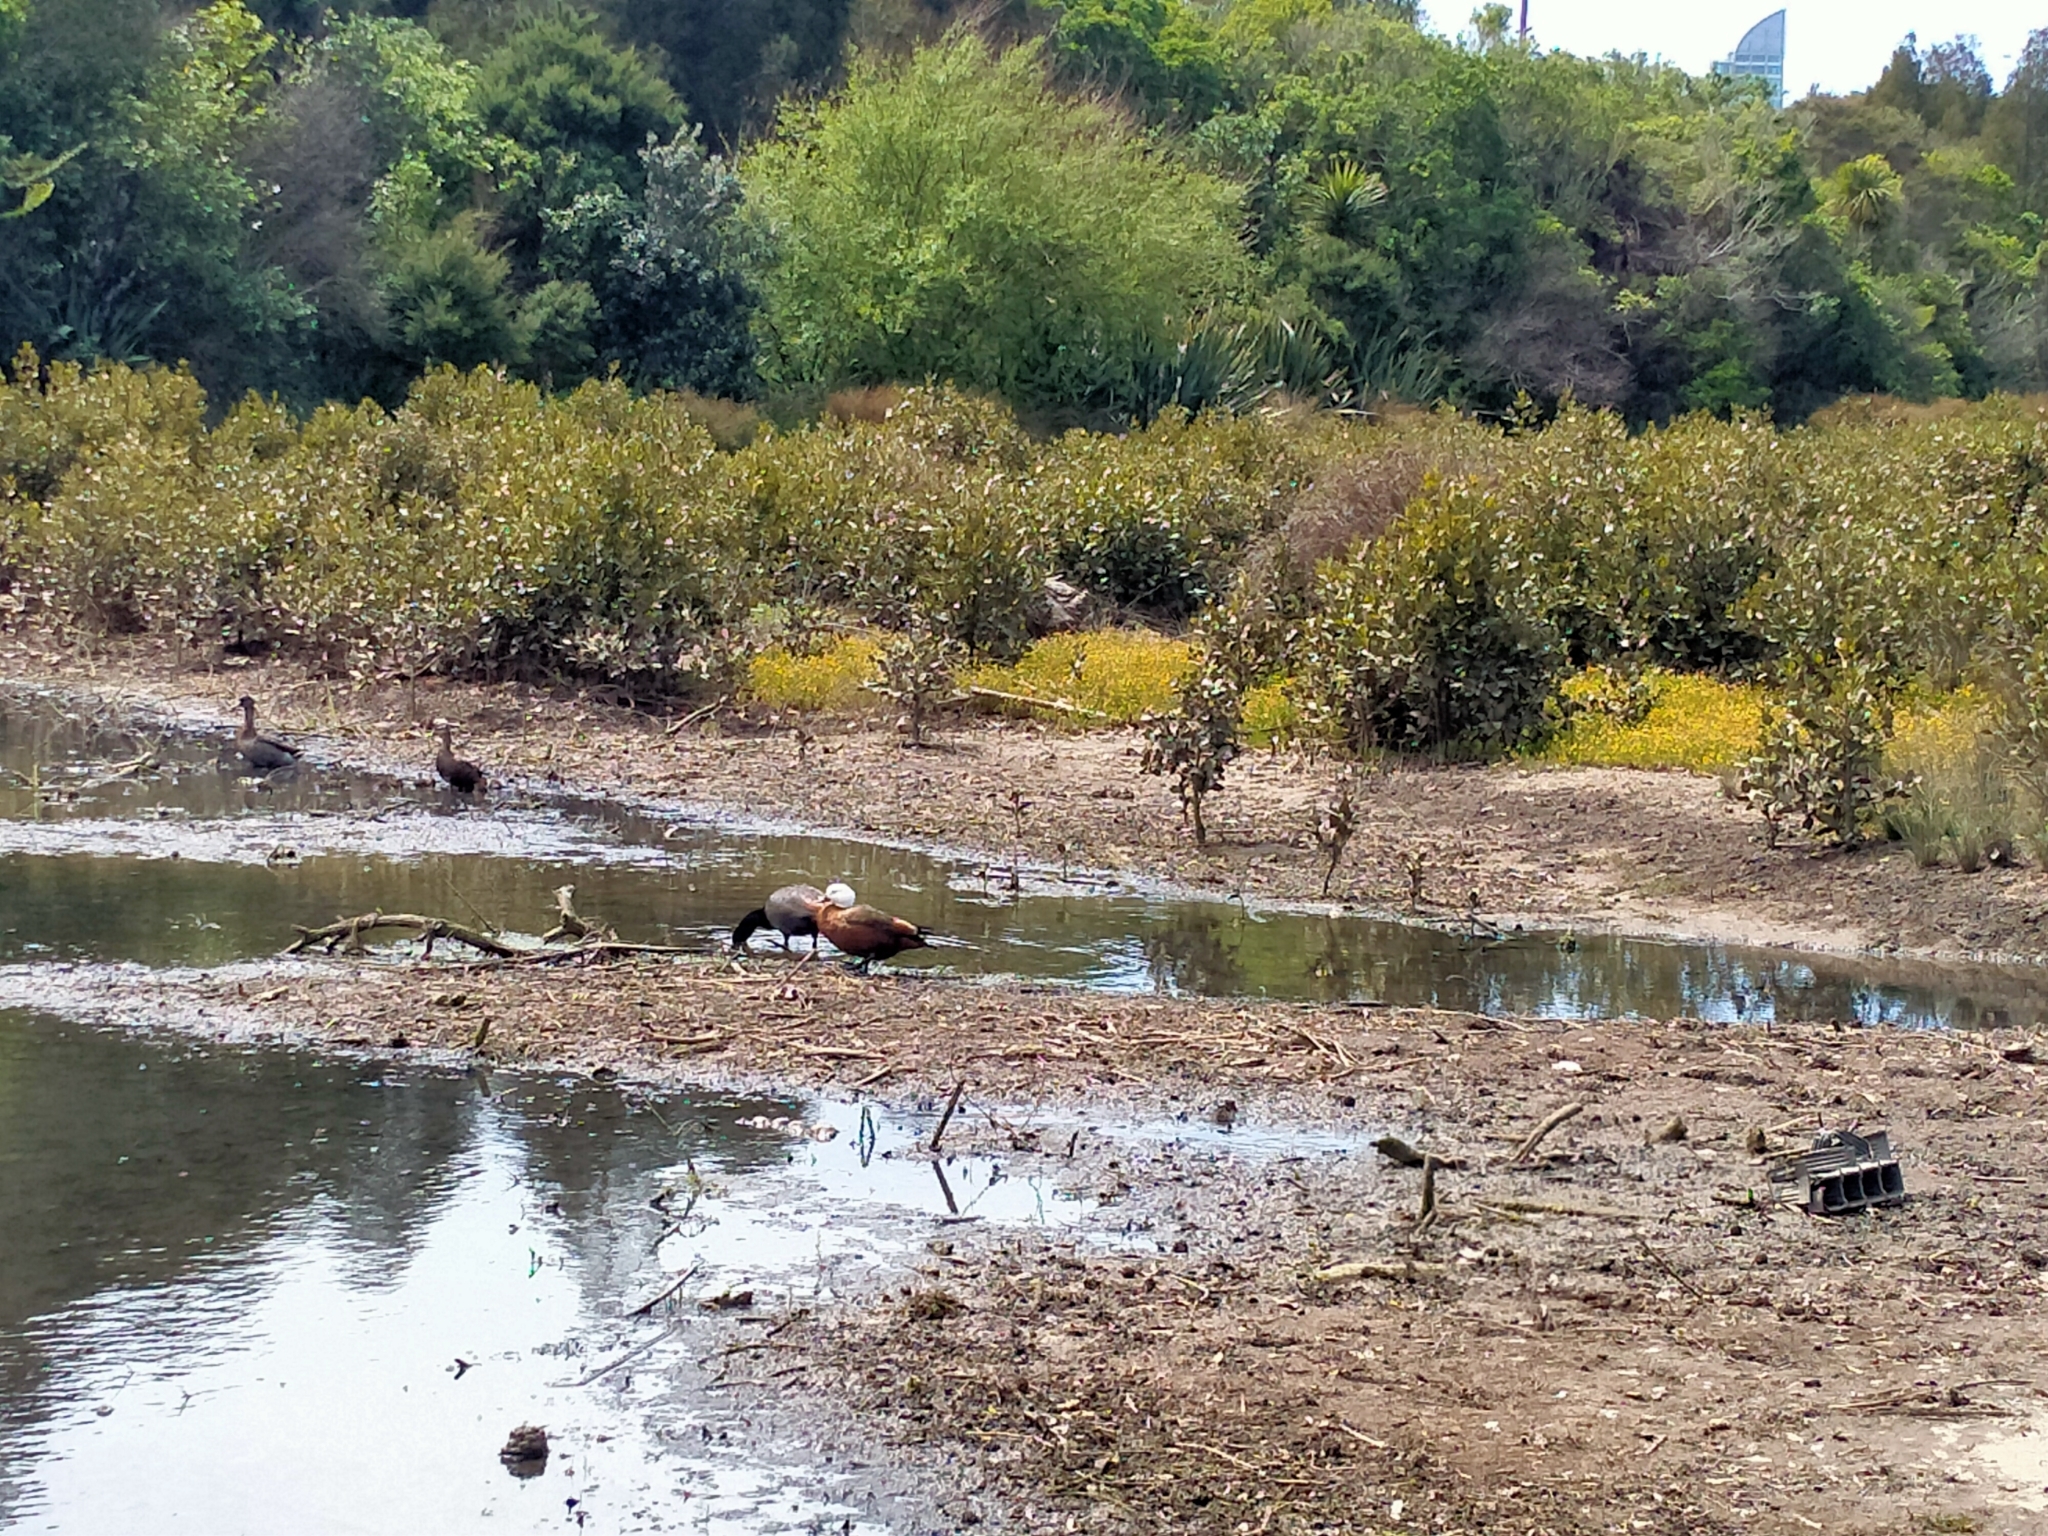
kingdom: Animalia
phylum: Chordata
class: Aves
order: Anseriformes
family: Anatidae
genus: Tadorna
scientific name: Tadorna variegata
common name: Paradise shelduck
